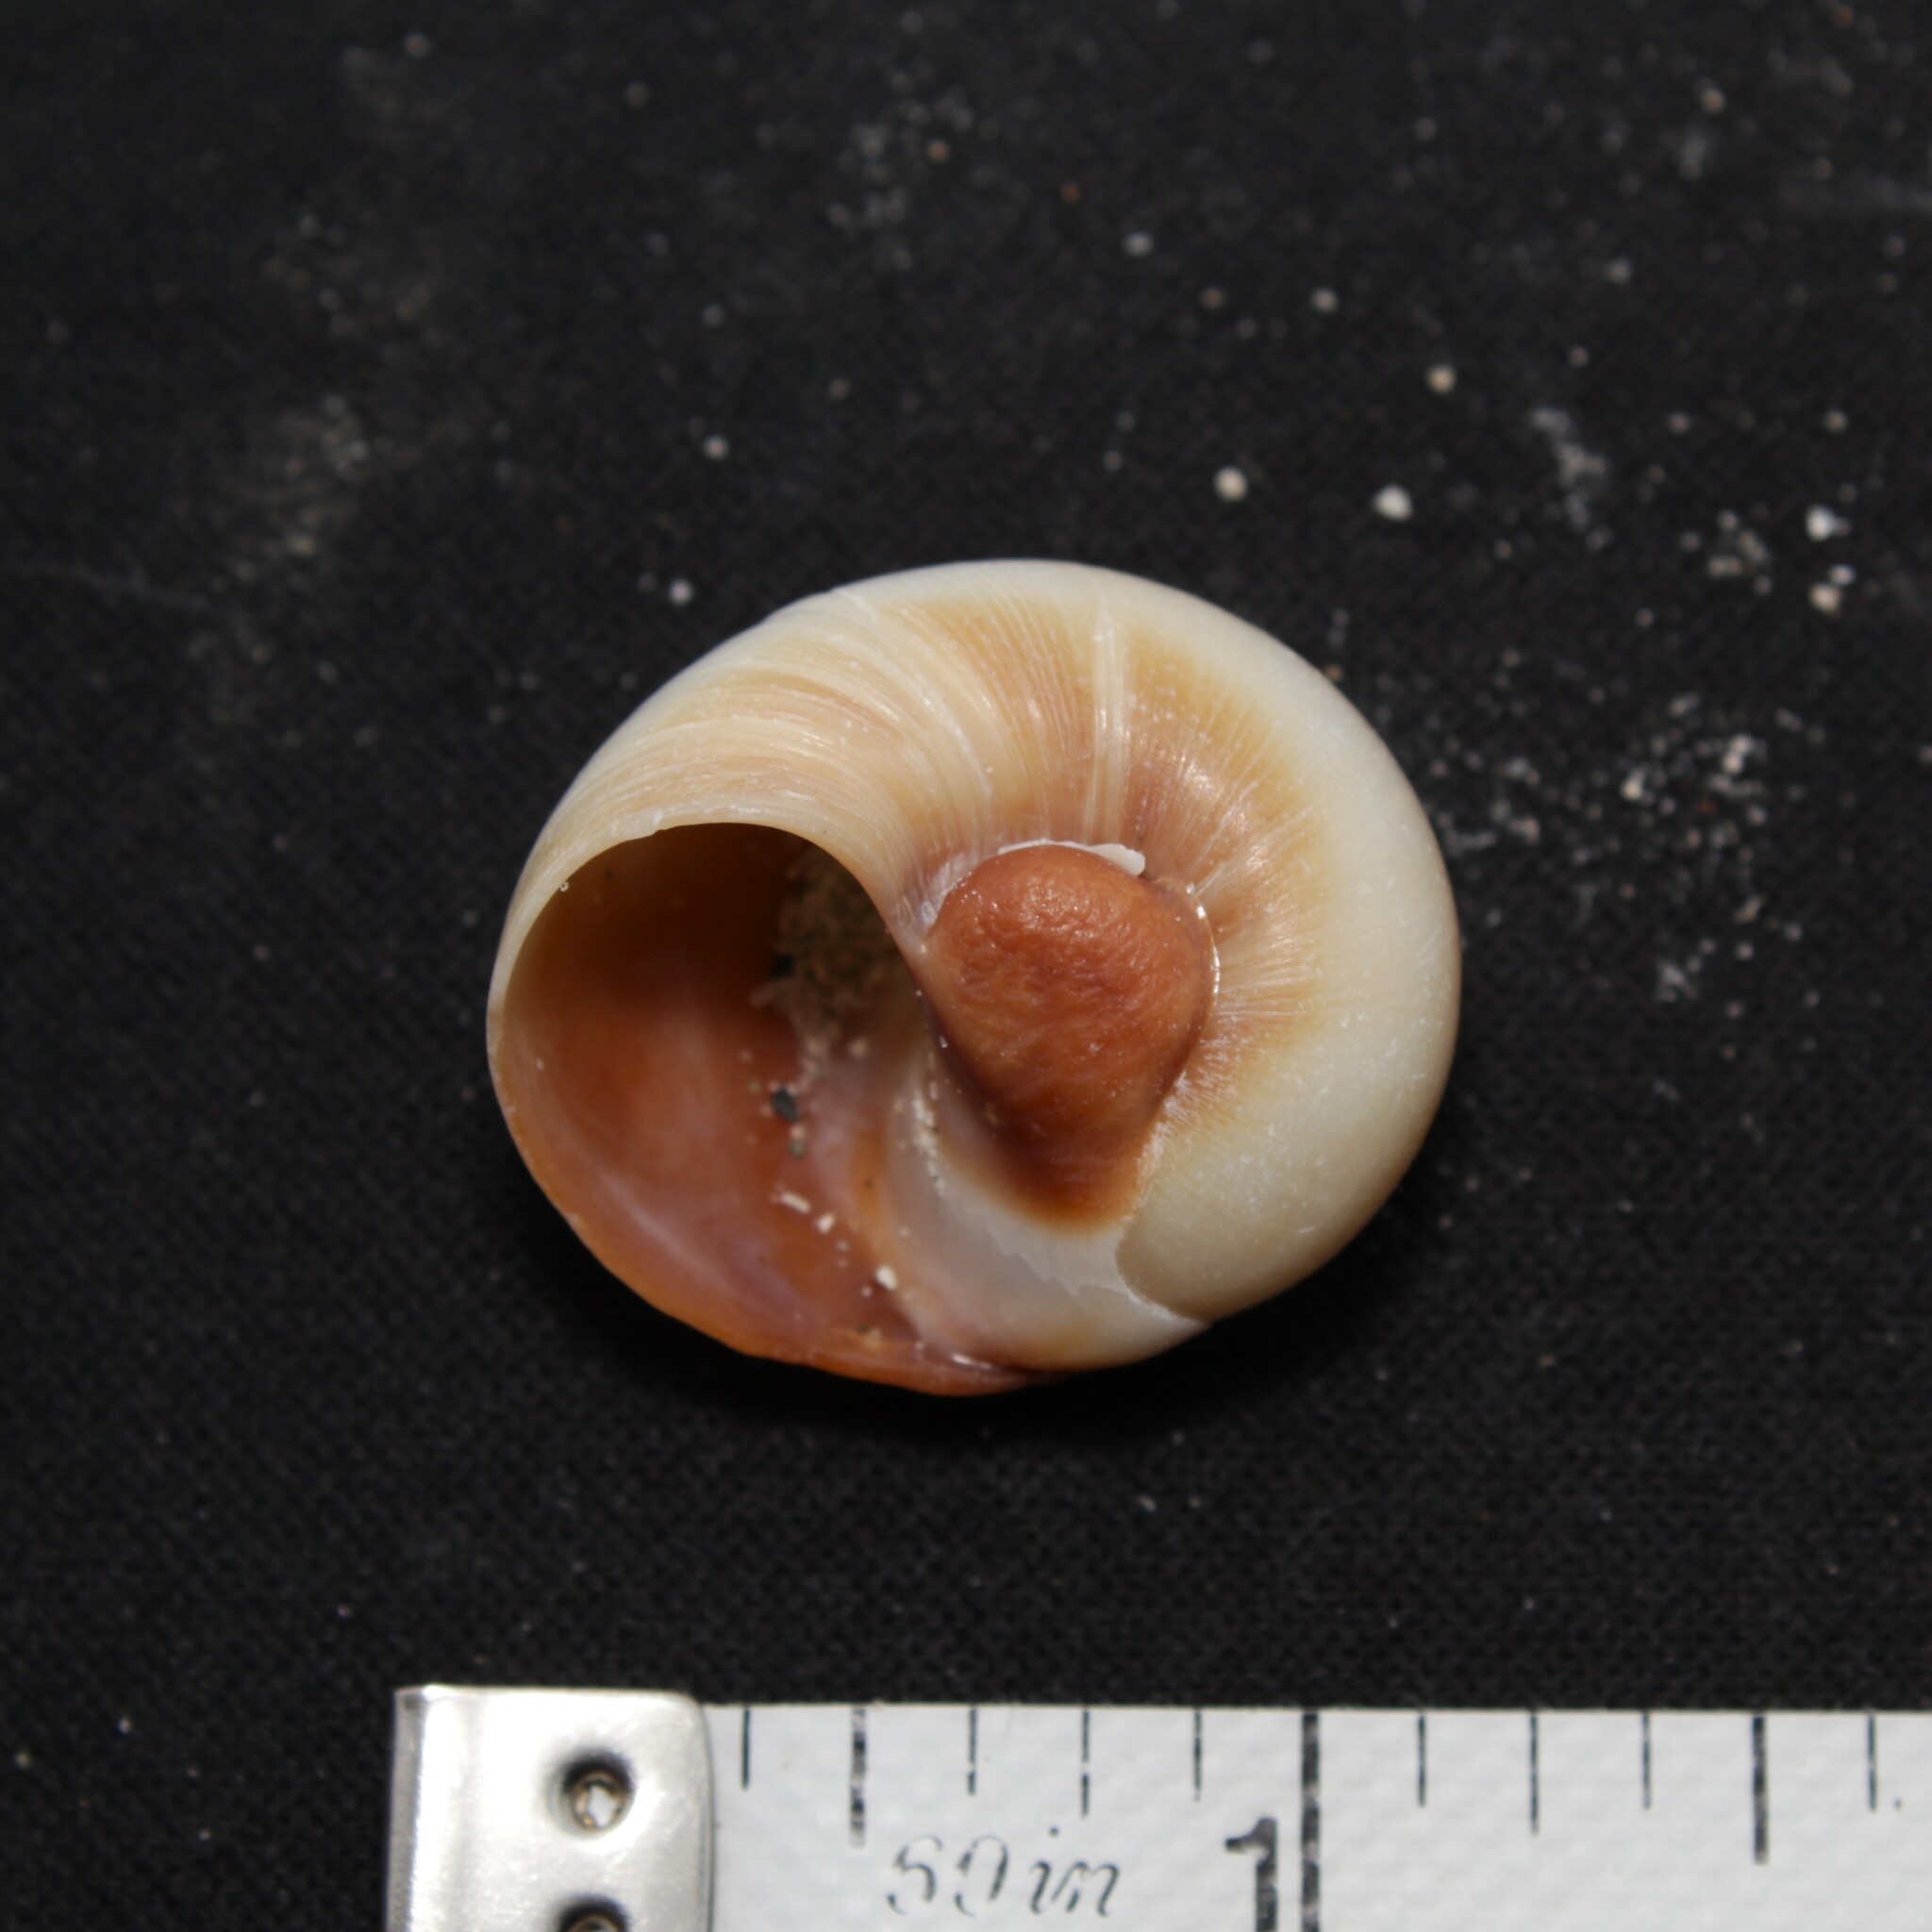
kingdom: Animalia
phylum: Mollusca
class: Gastropoda
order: Littorinimorpha
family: Naticidae
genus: Neverita
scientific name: Neverita duplicata
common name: Lobed moonsnail
